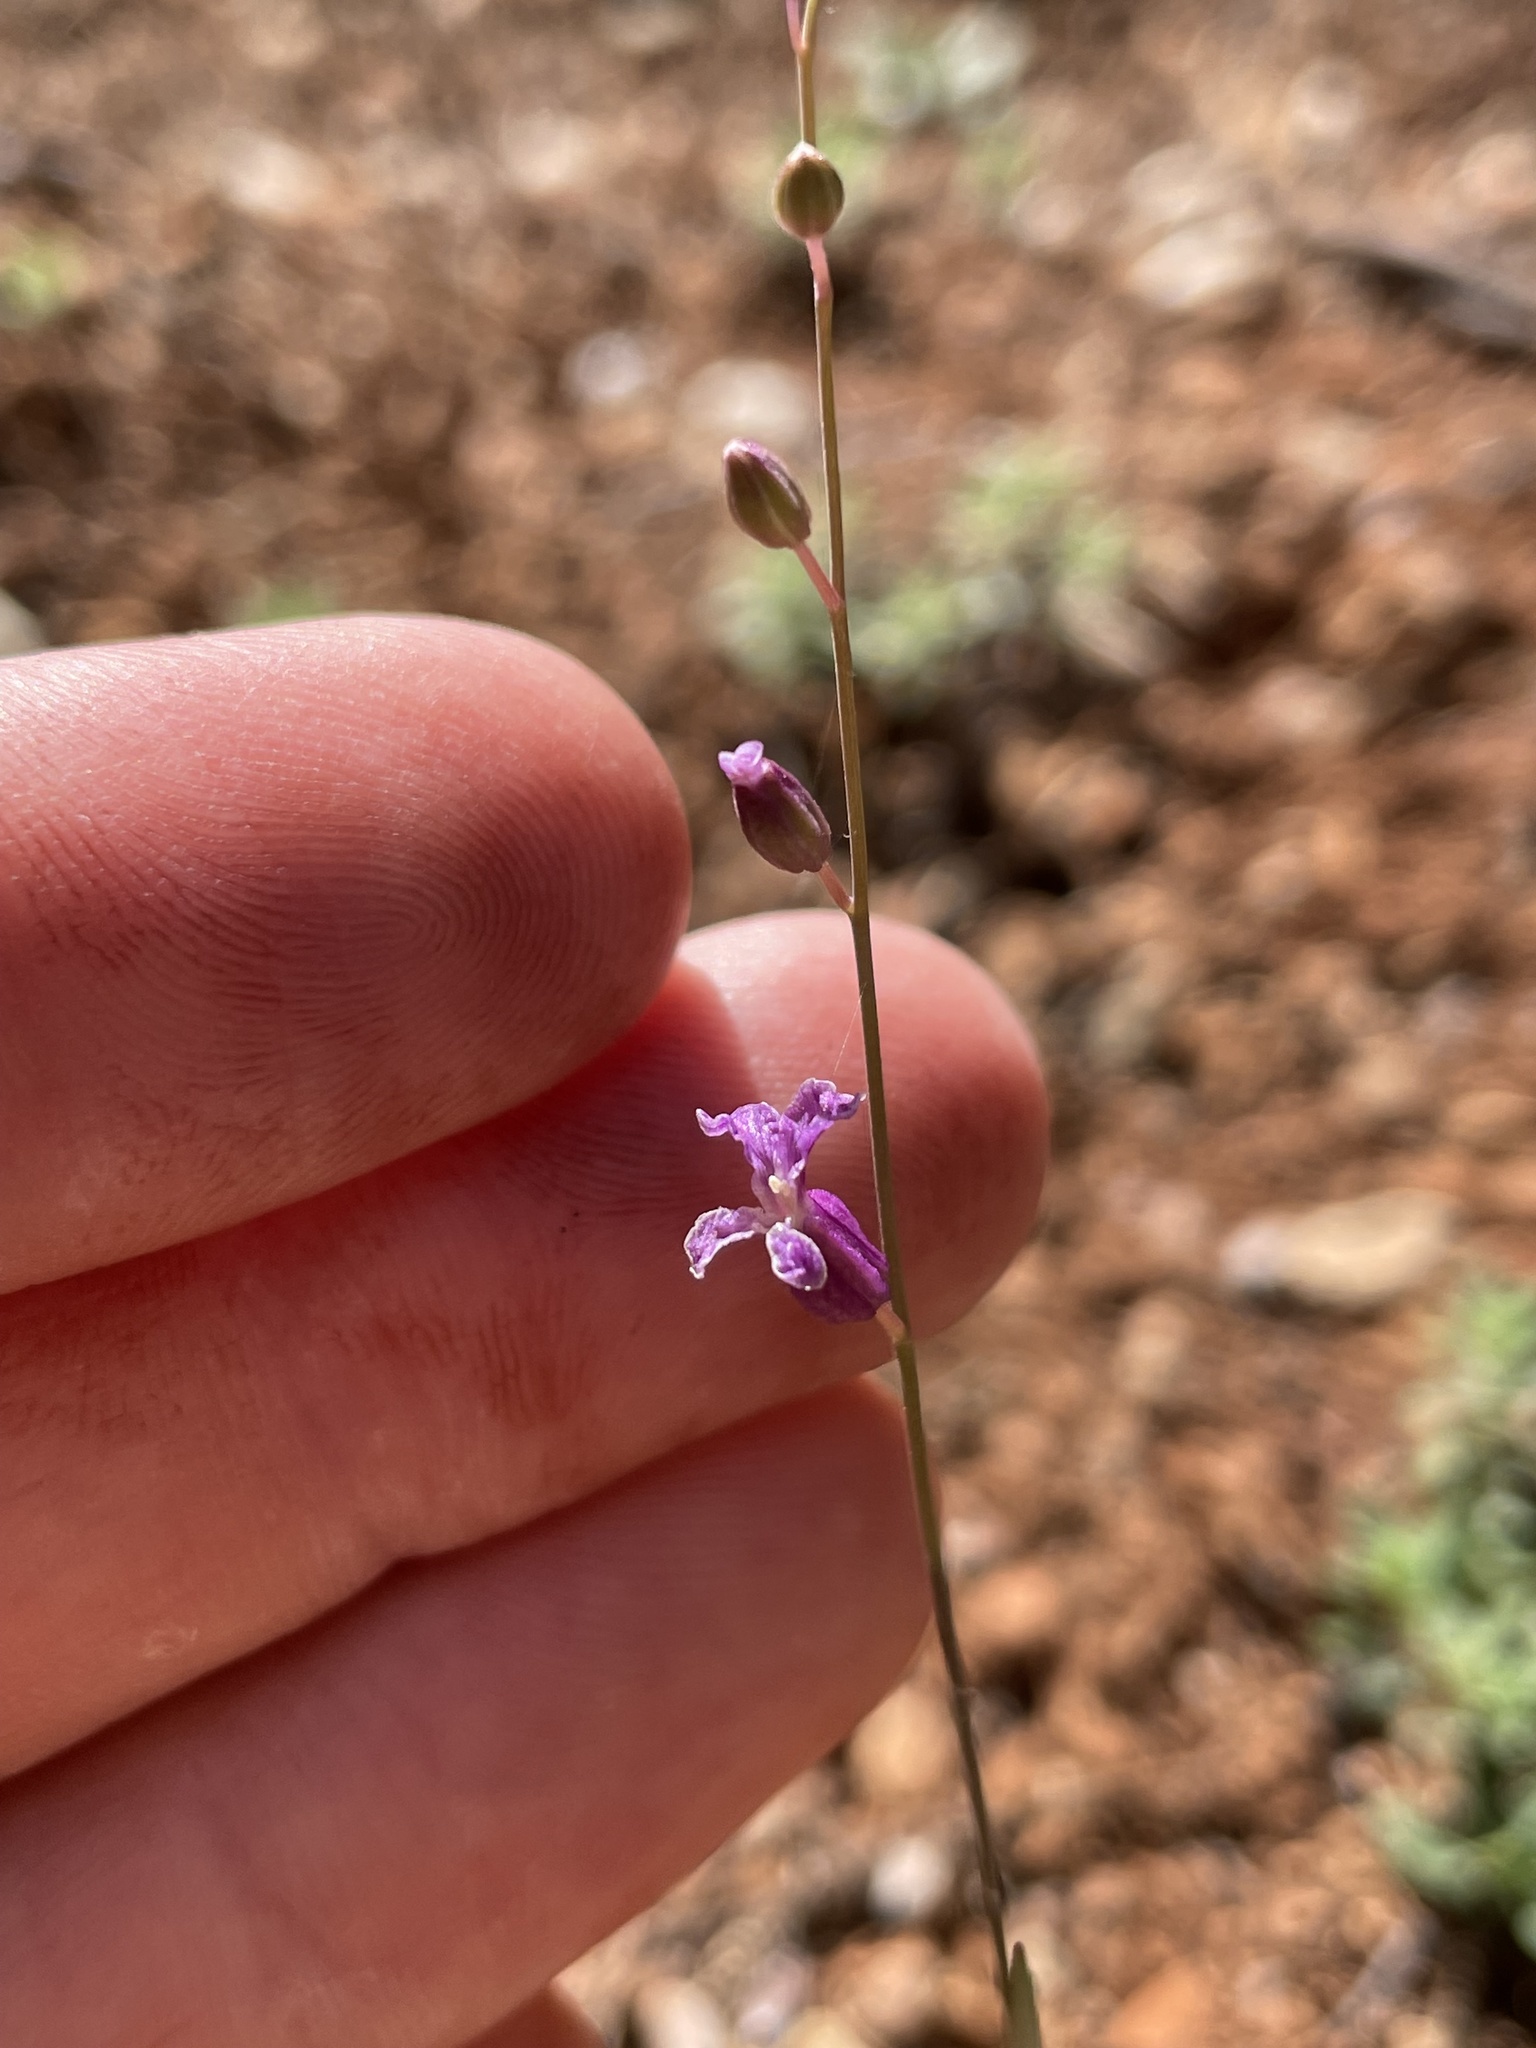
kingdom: Plantae
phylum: Tracheophyta
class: Magnoliopsida
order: Brassicales
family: Brassicaceae
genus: Streptanthus
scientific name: Streptanthus glandulosus
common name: Jewel-flower
